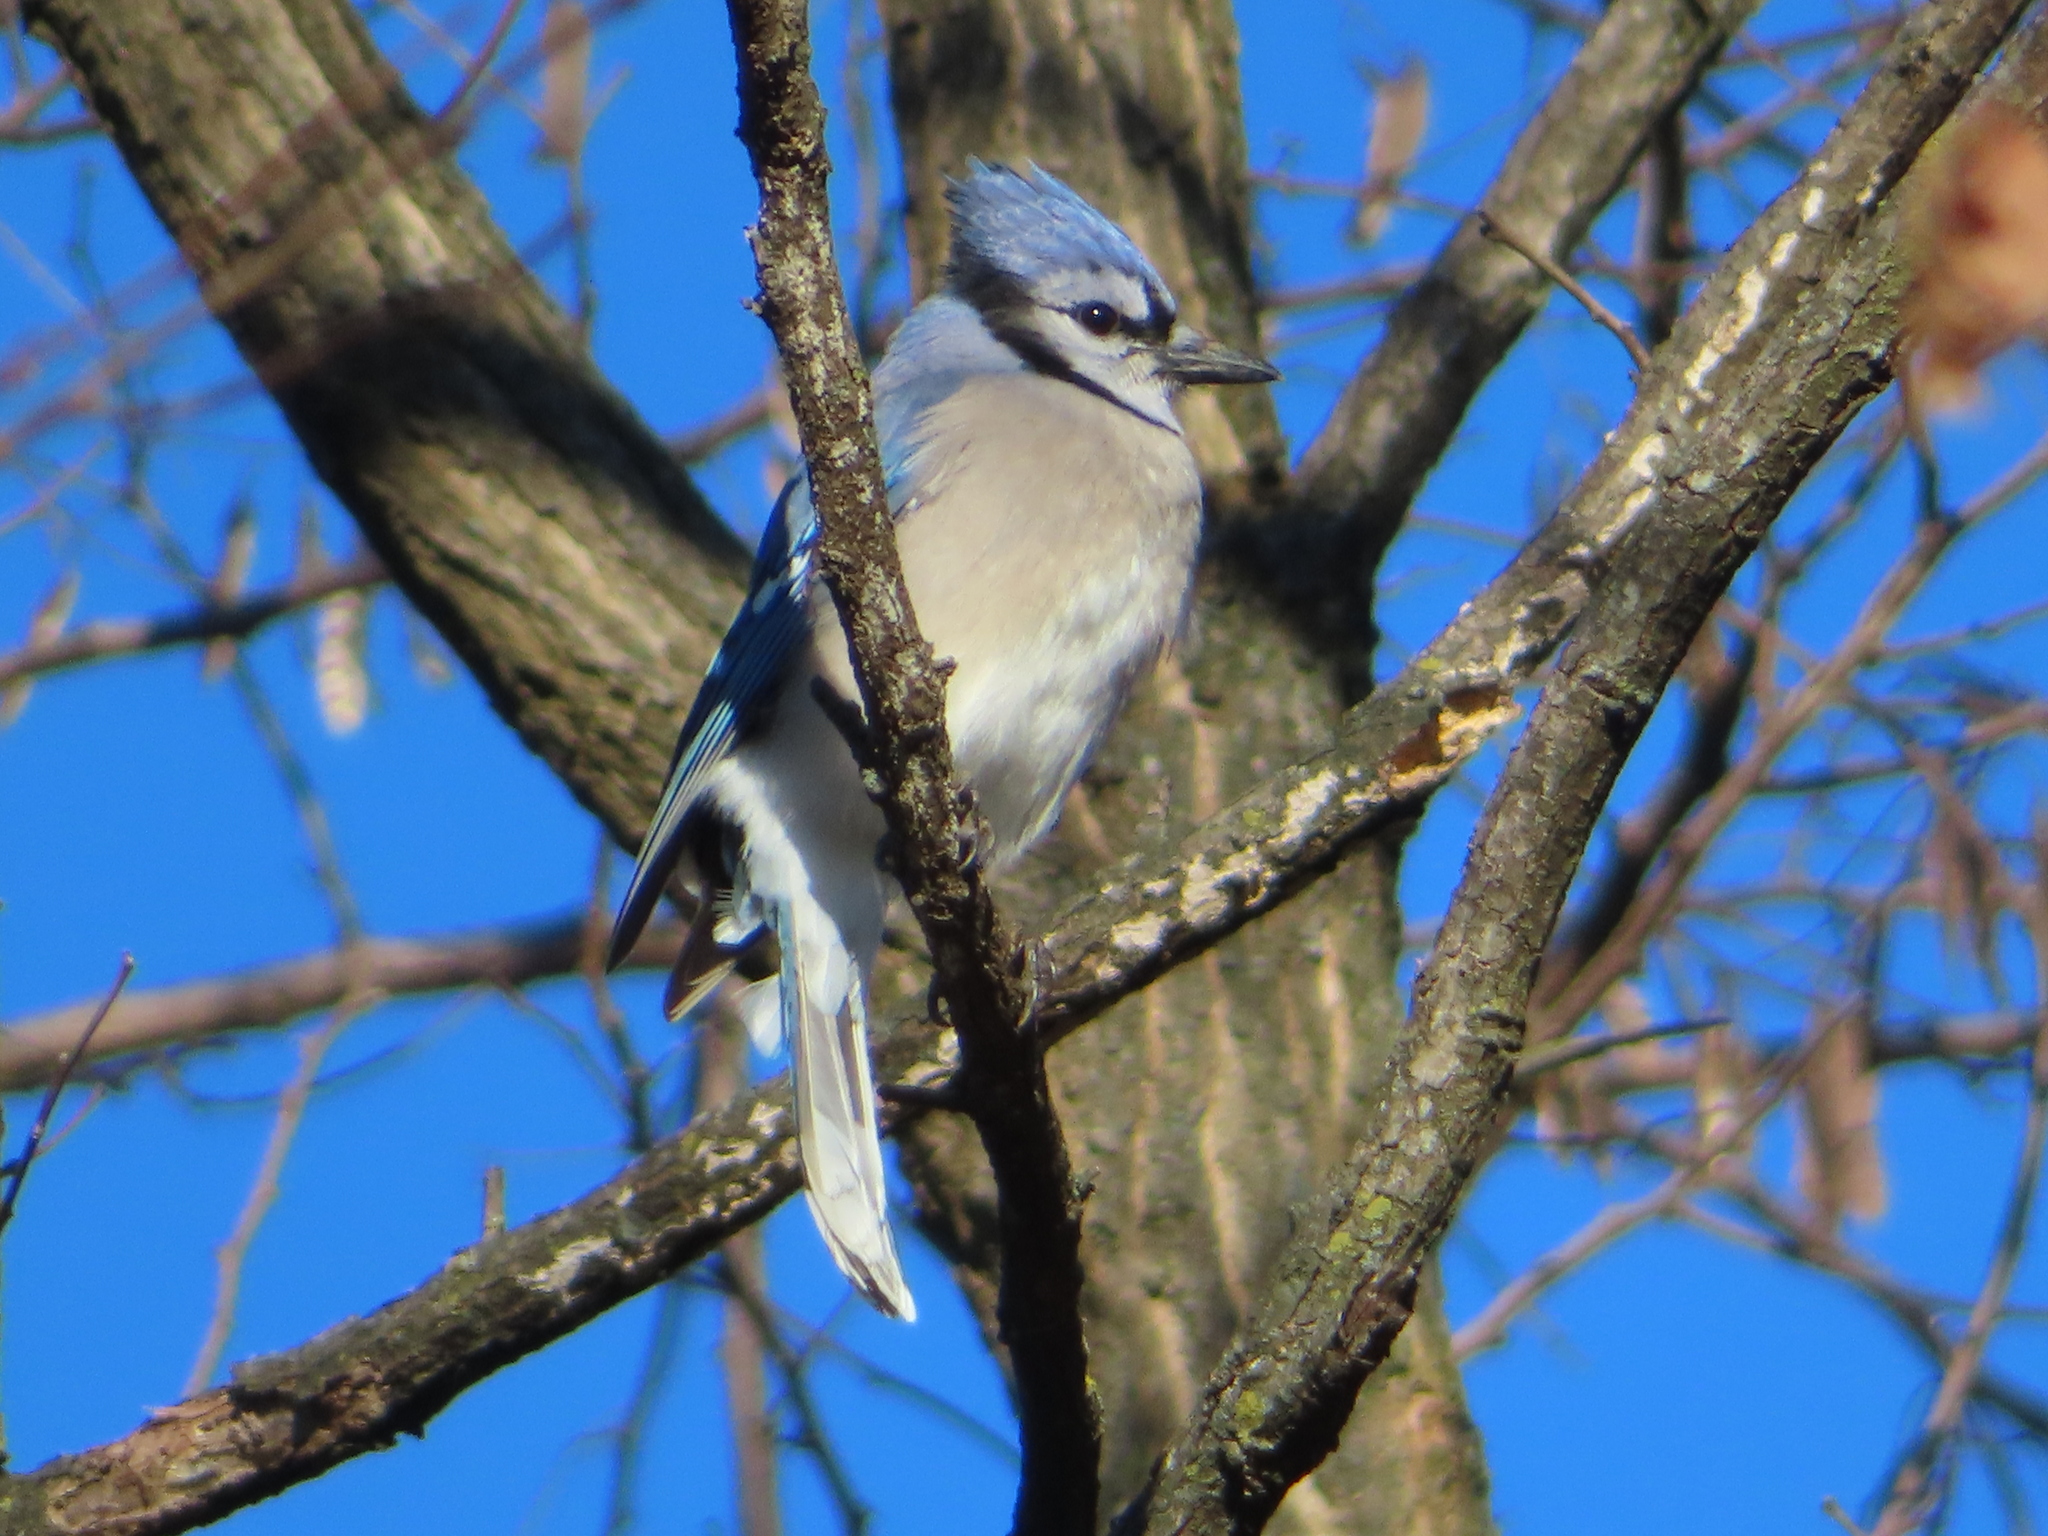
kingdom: Animalia
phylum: Chordata
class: Aves
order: Passeriformes
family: Corvidae
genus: Cyanocitta
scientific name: Cyanocitta cristata
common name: Blue jay
